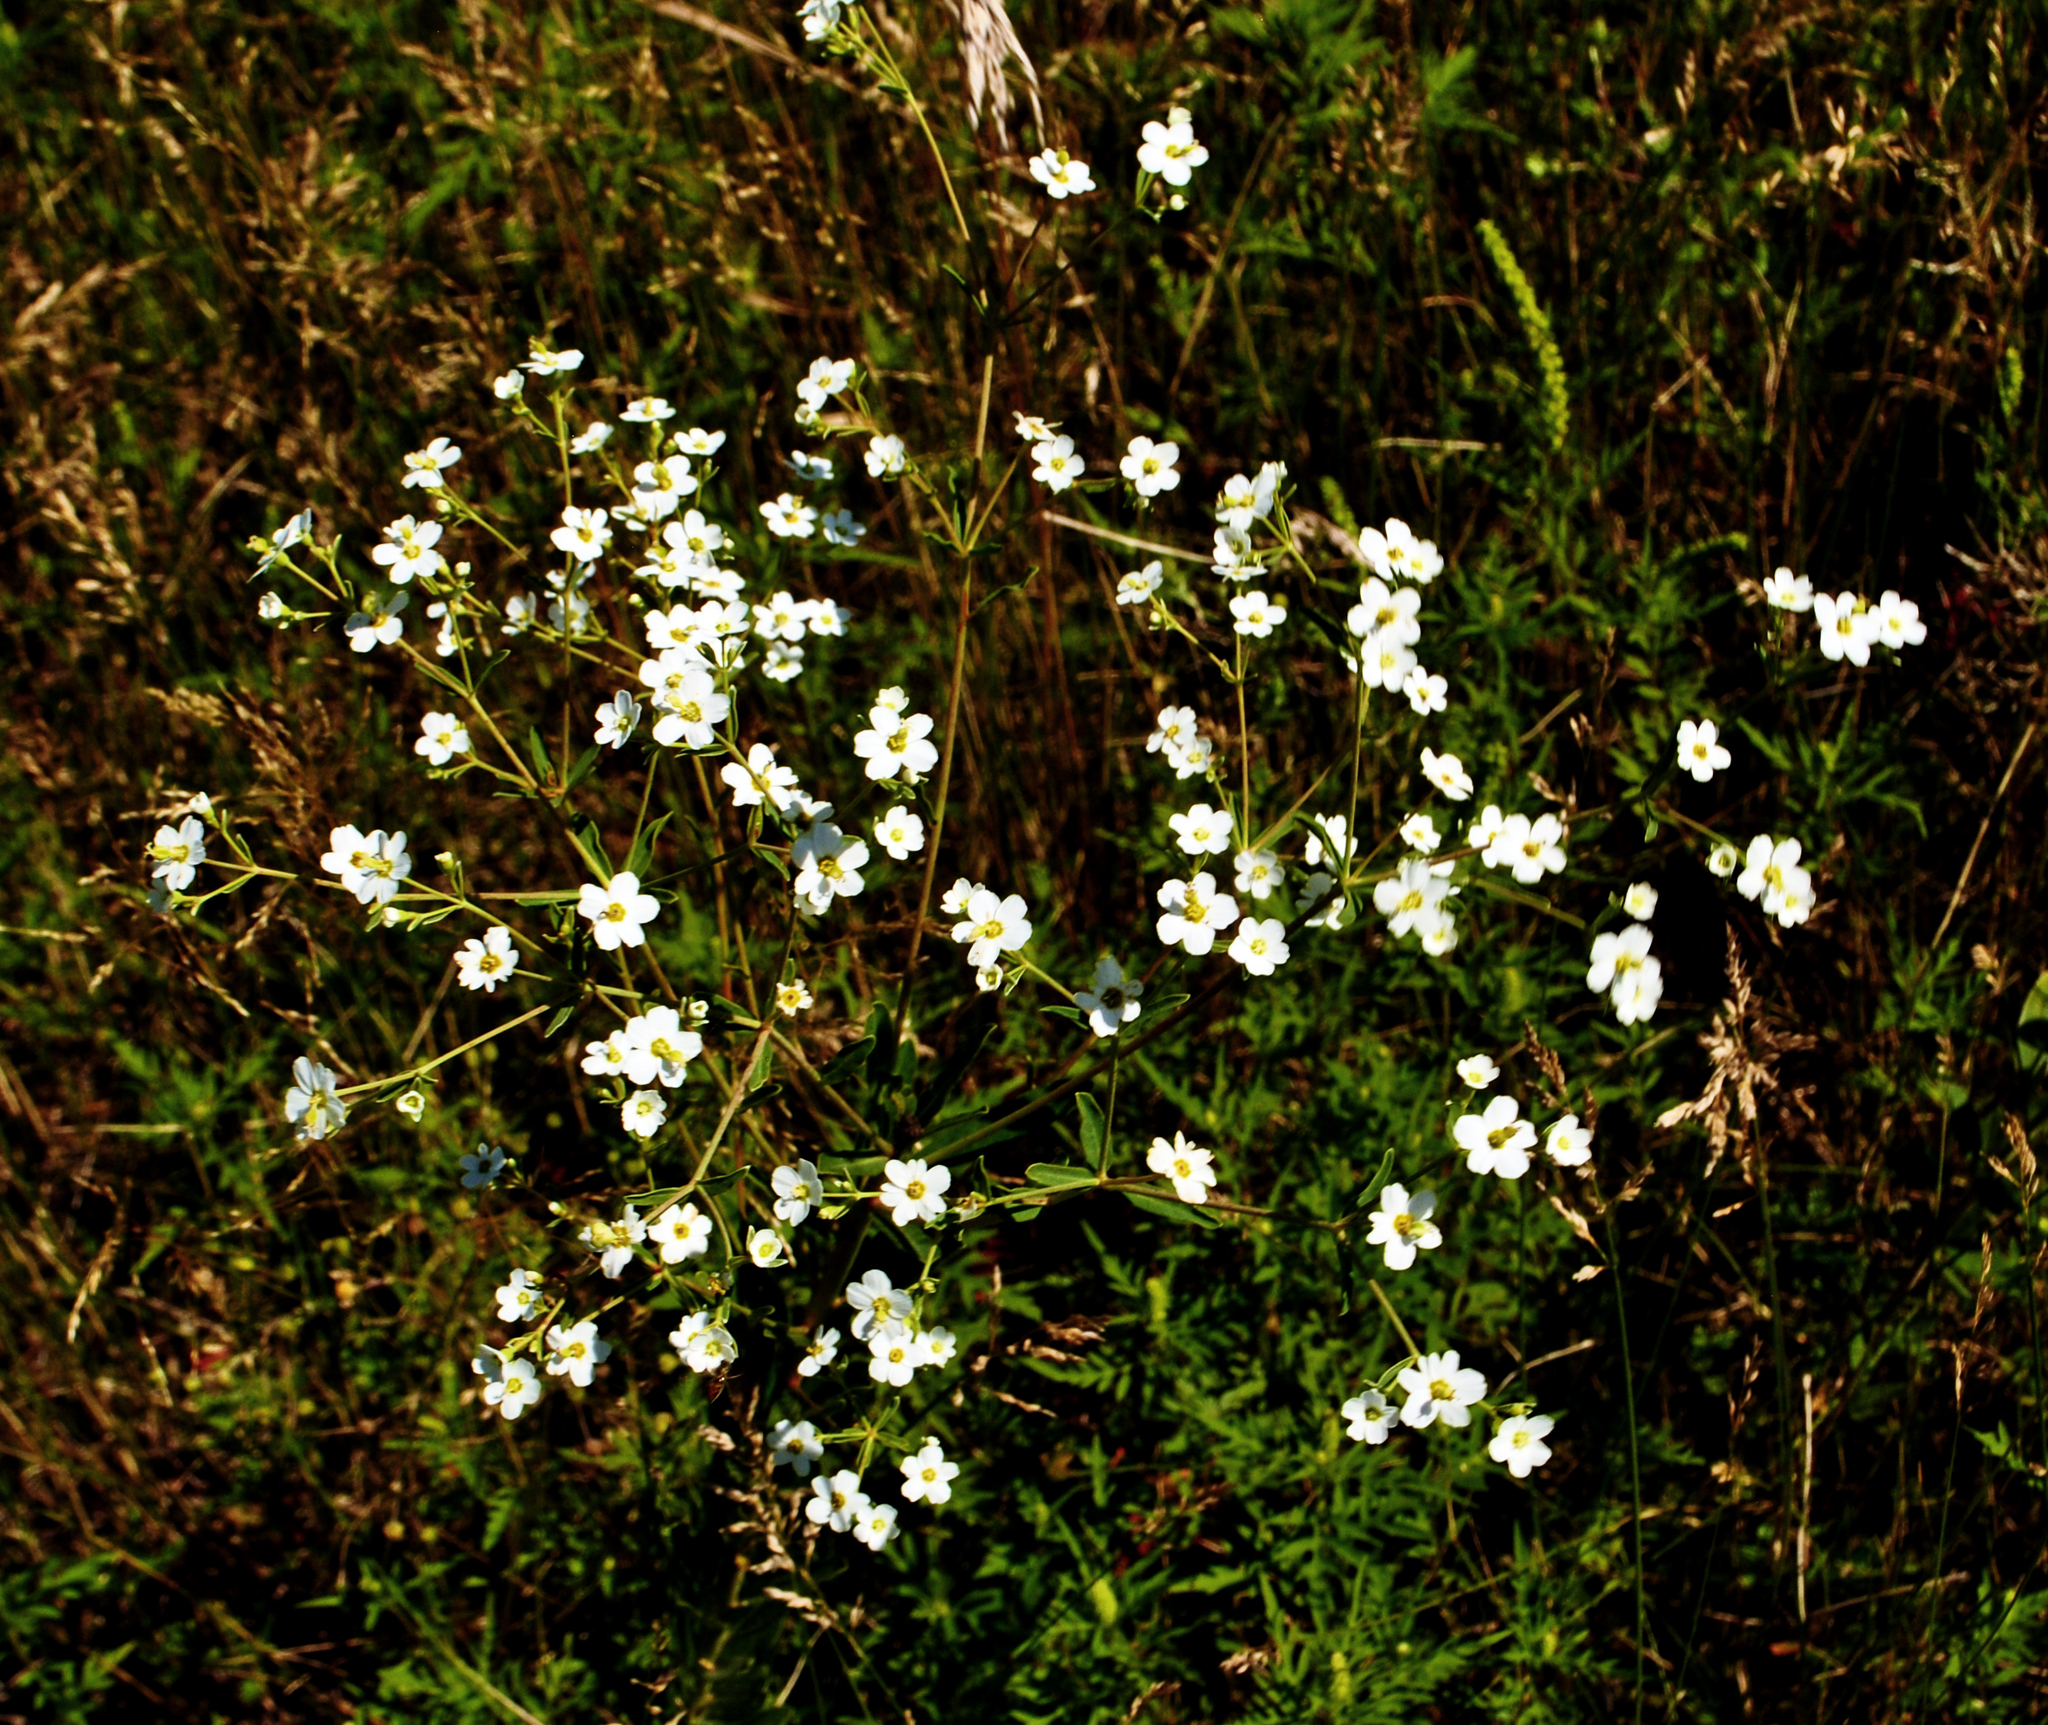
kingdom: Plantae
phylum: Tracheophyta
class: Magnoliopsida
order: Malpighiales
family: Euphorbiaceae
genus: Euphorbia
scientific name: Euphorbia corollata
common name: Flowering spurge
